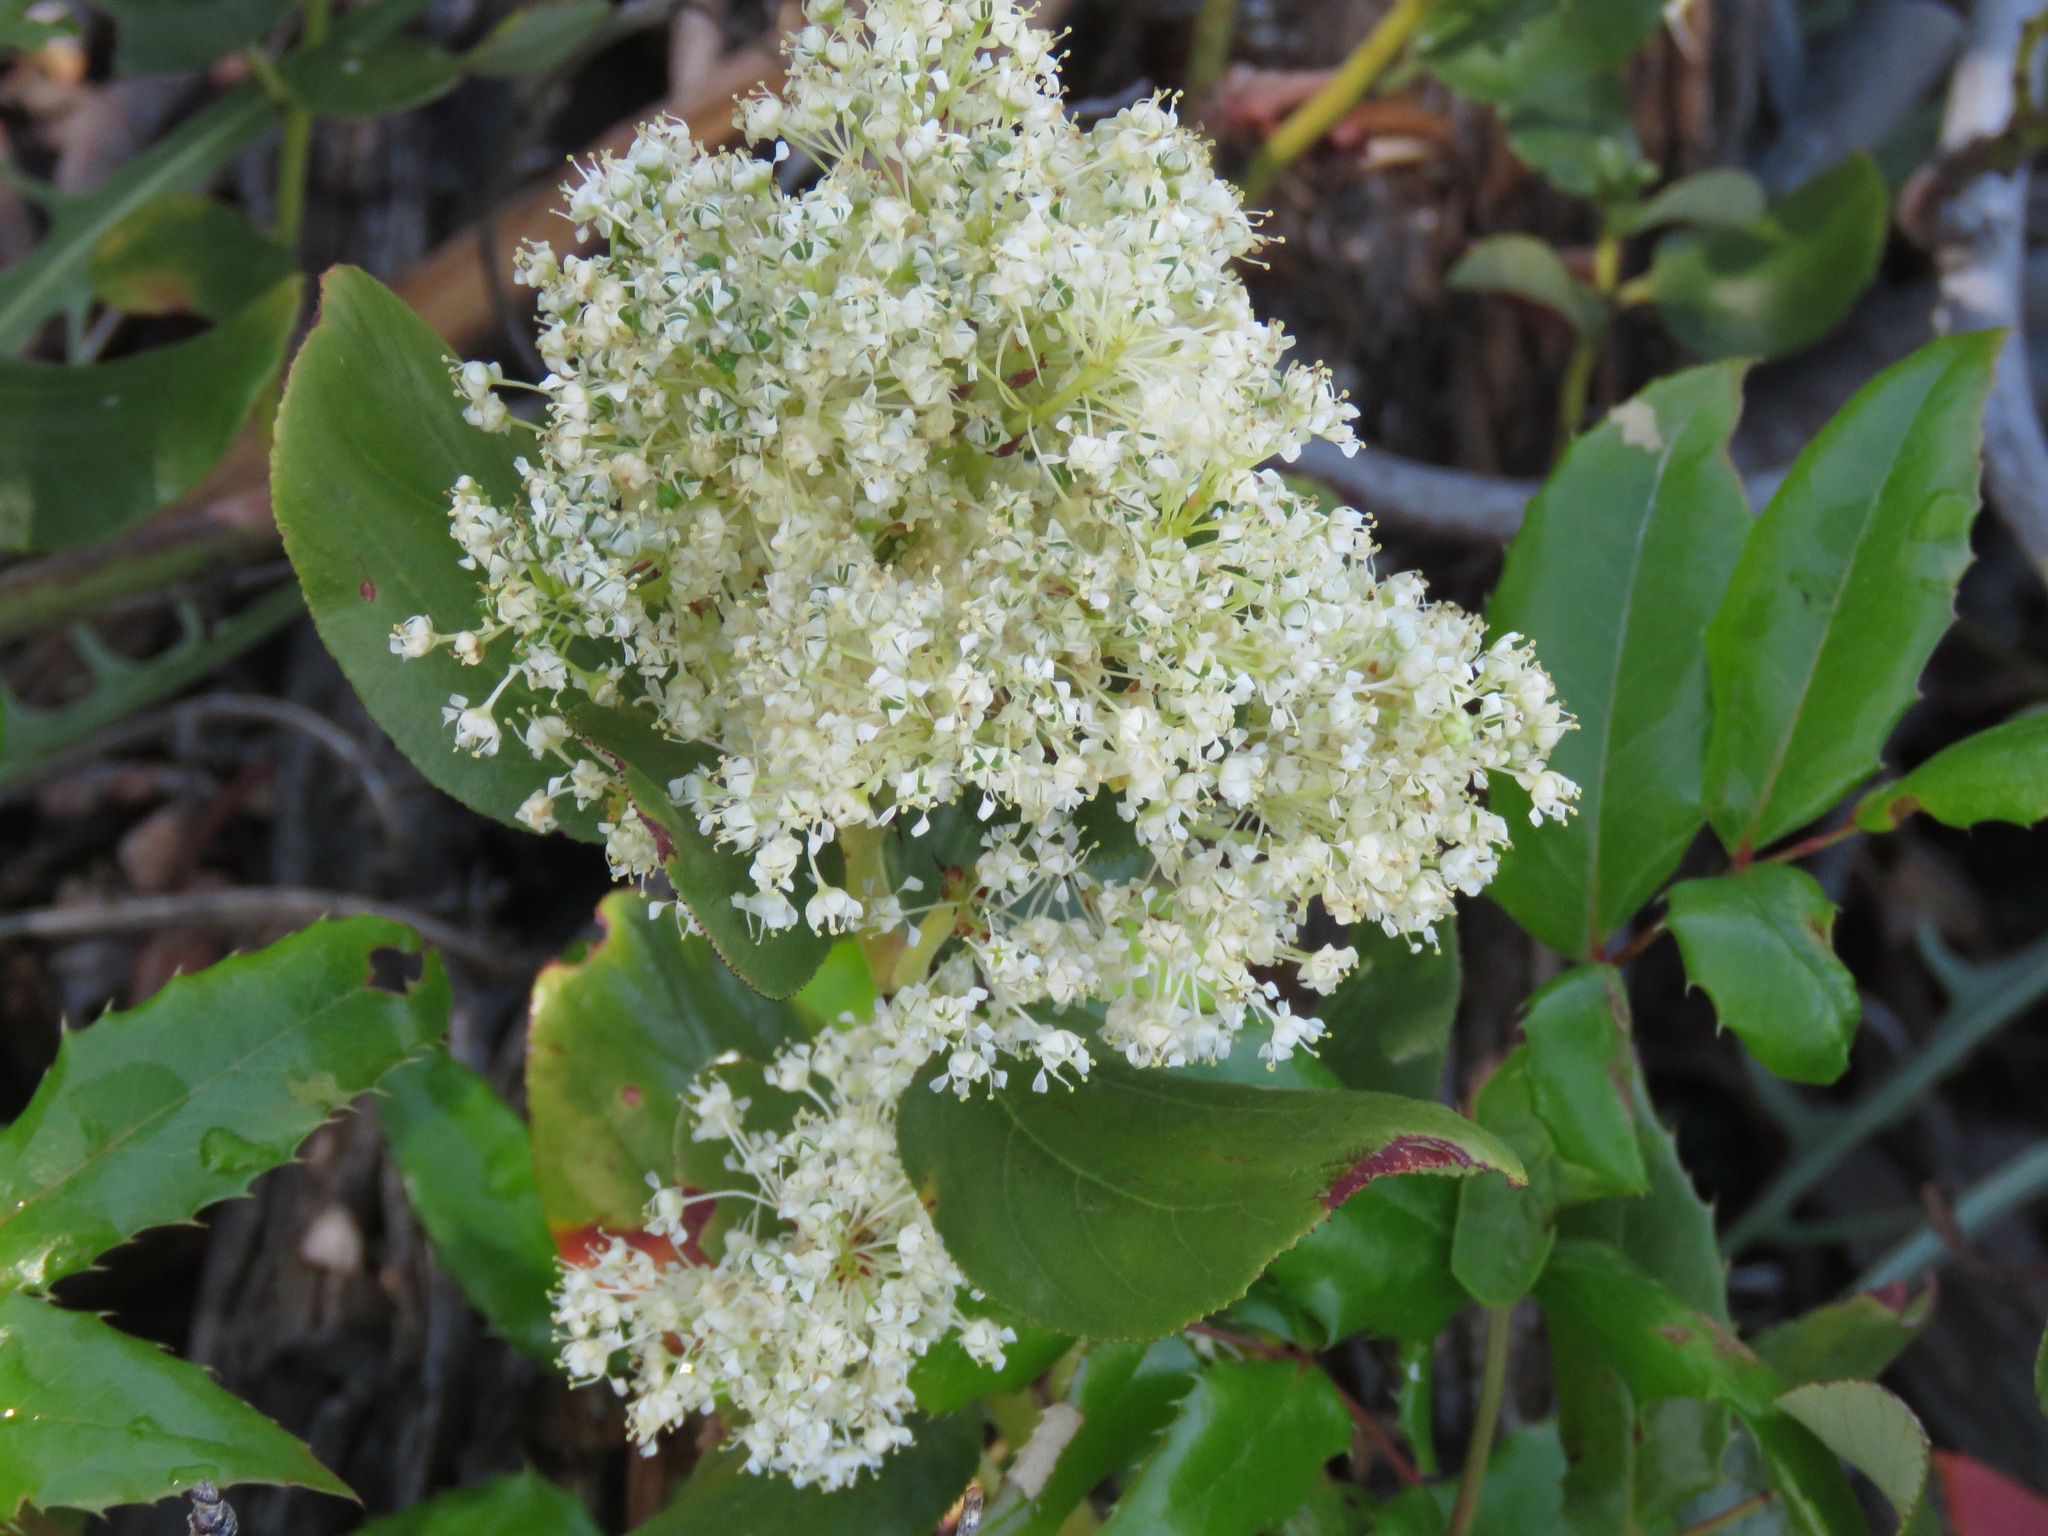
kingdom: Plantae
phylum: Tracheophyta
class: Magnoliopsida
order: Rosales
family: Rhamnaceae
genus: Ceanothus
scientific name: Ceanothus velutinus
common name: Snowbrush
